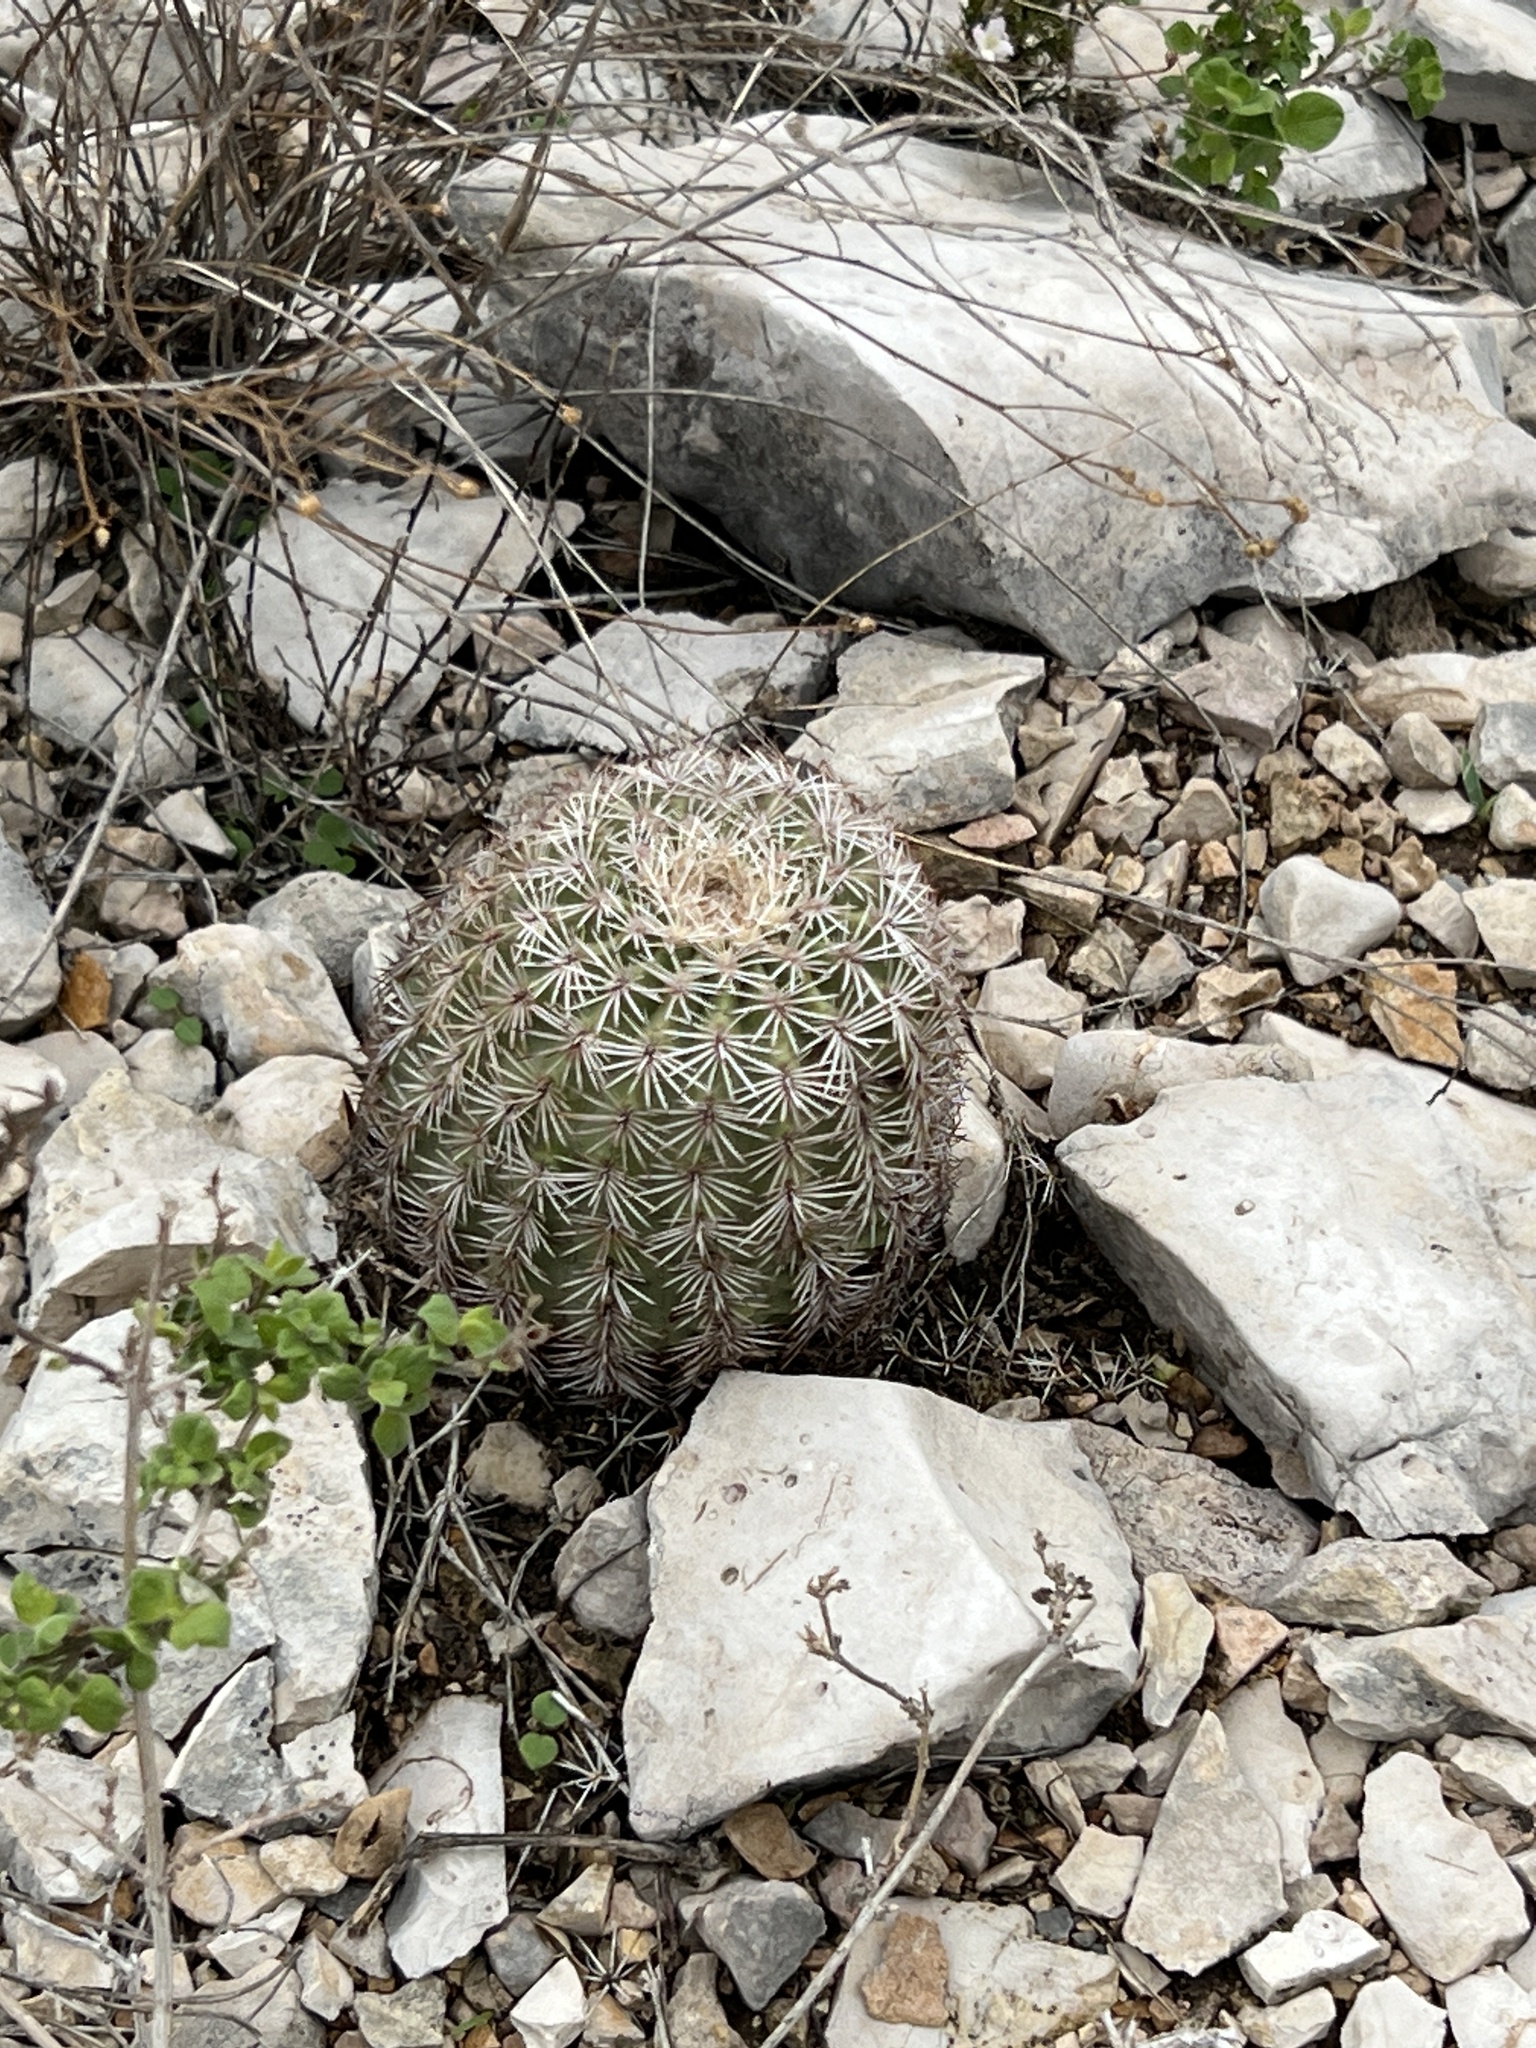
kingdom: Plantae
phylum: Tracheophyta
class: Magnoliopsida
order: Caryophyllales
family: Cactaceae
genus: Echinocereus
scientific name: Echinocereus pectinatus
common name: Rainbow cactus
